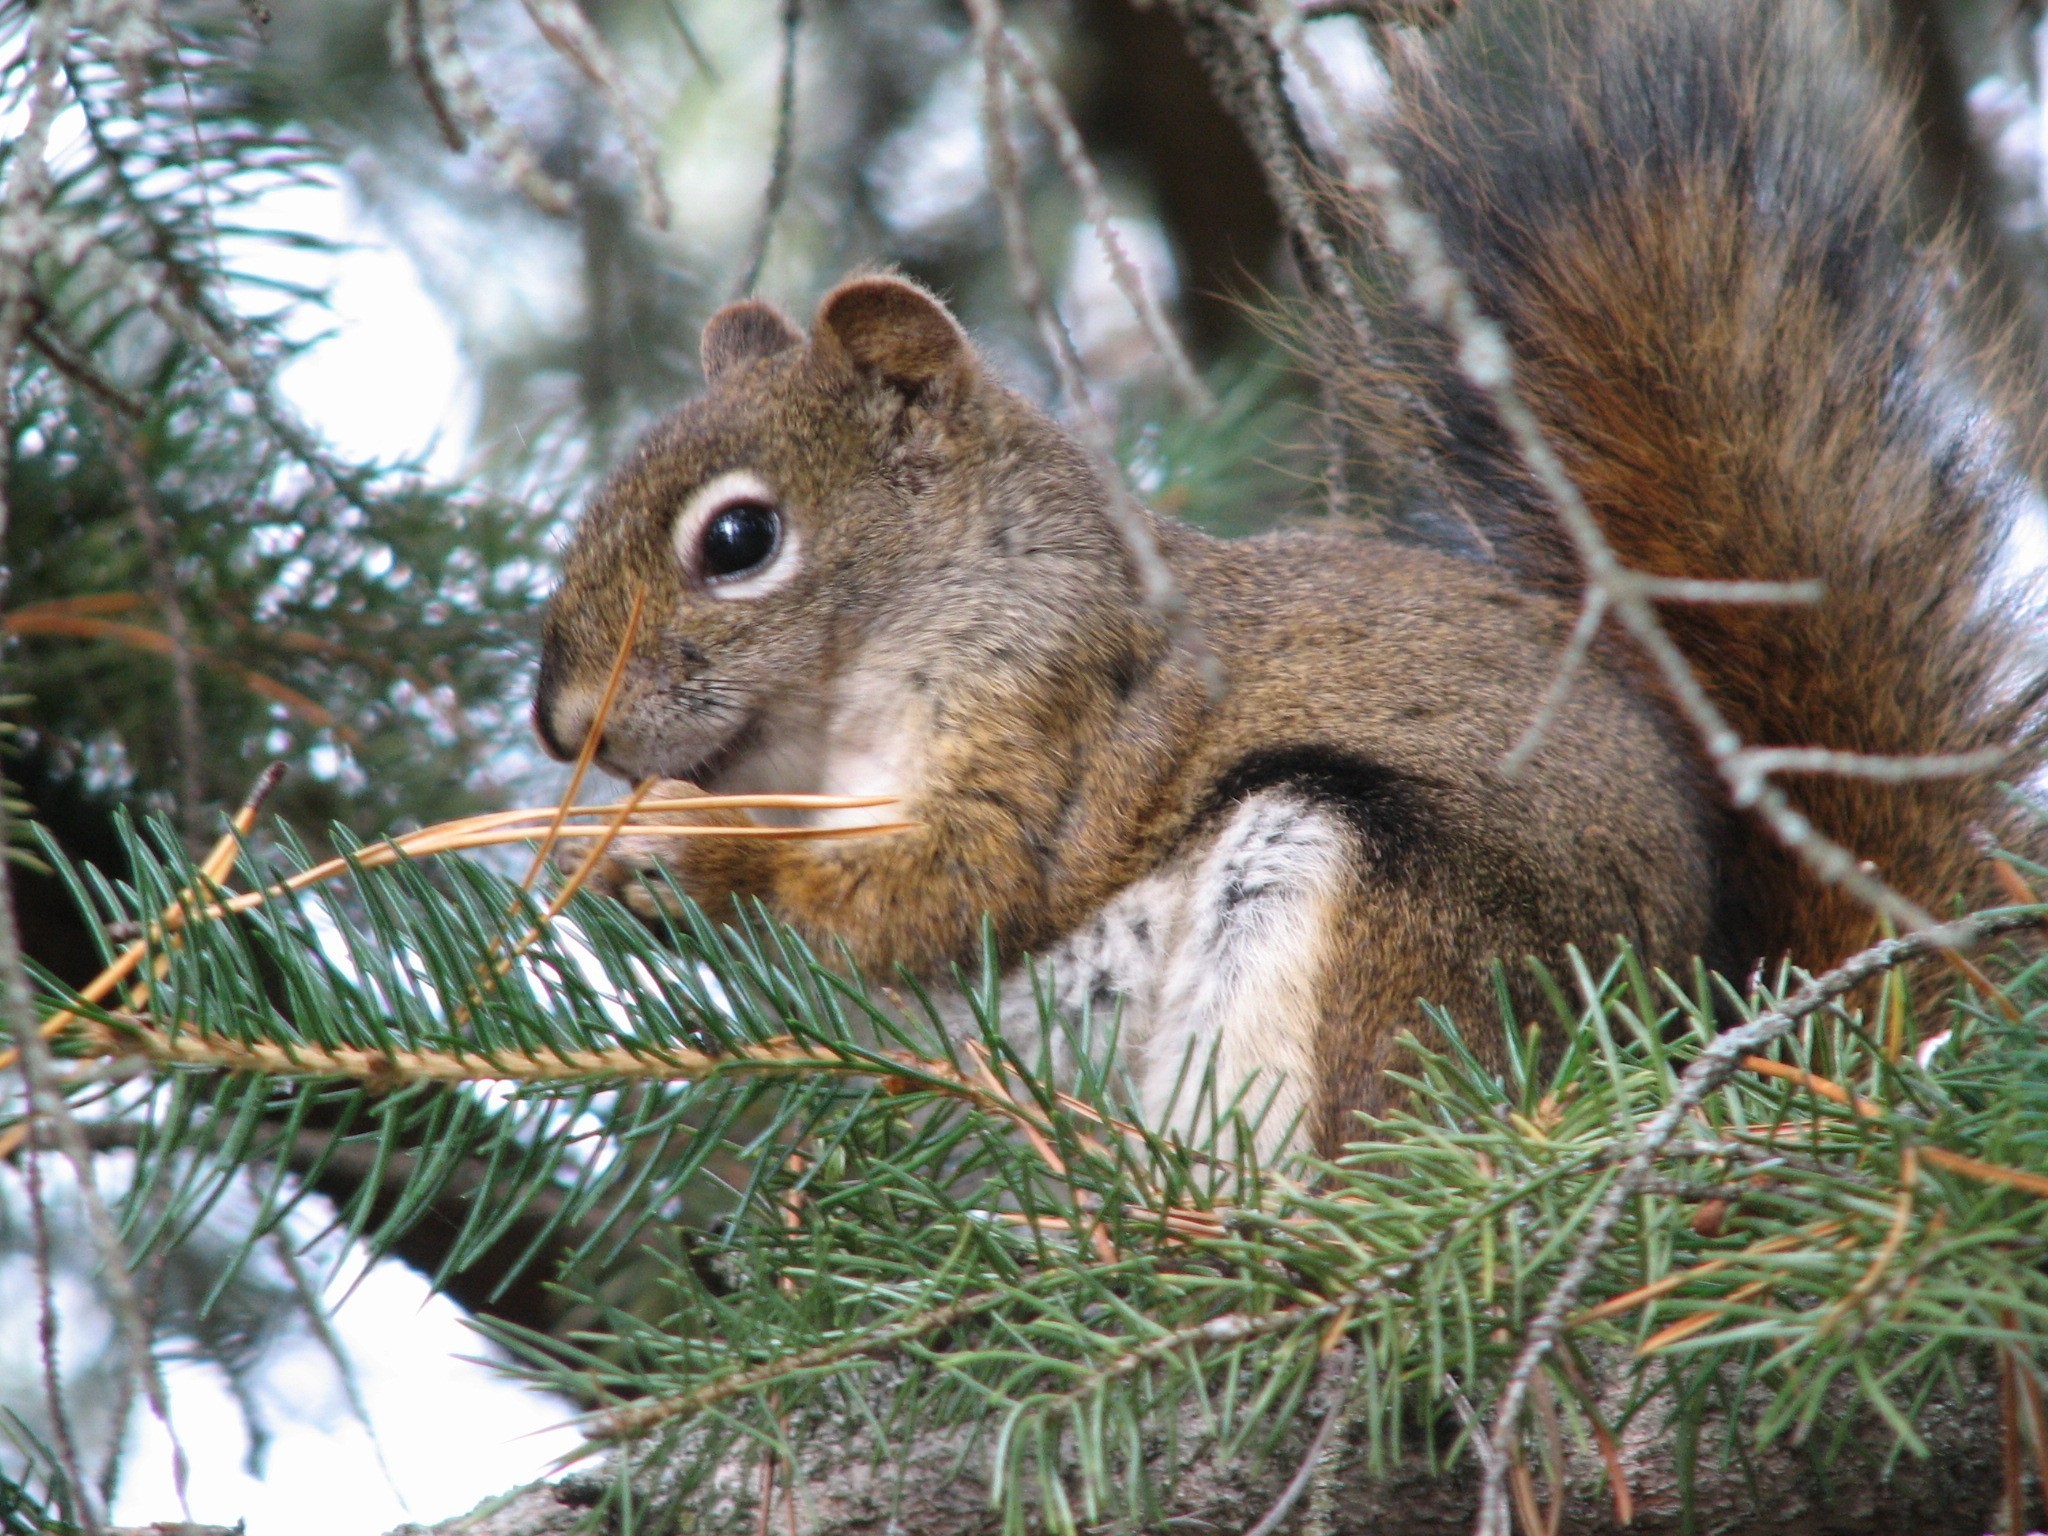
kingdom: Animalia
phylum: Chordata
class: Mammalia
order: Rodentia
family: Sciuridae
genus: Tamiasciurus
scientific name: Tamiasciurus hudsonicus
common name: Red squirrel
